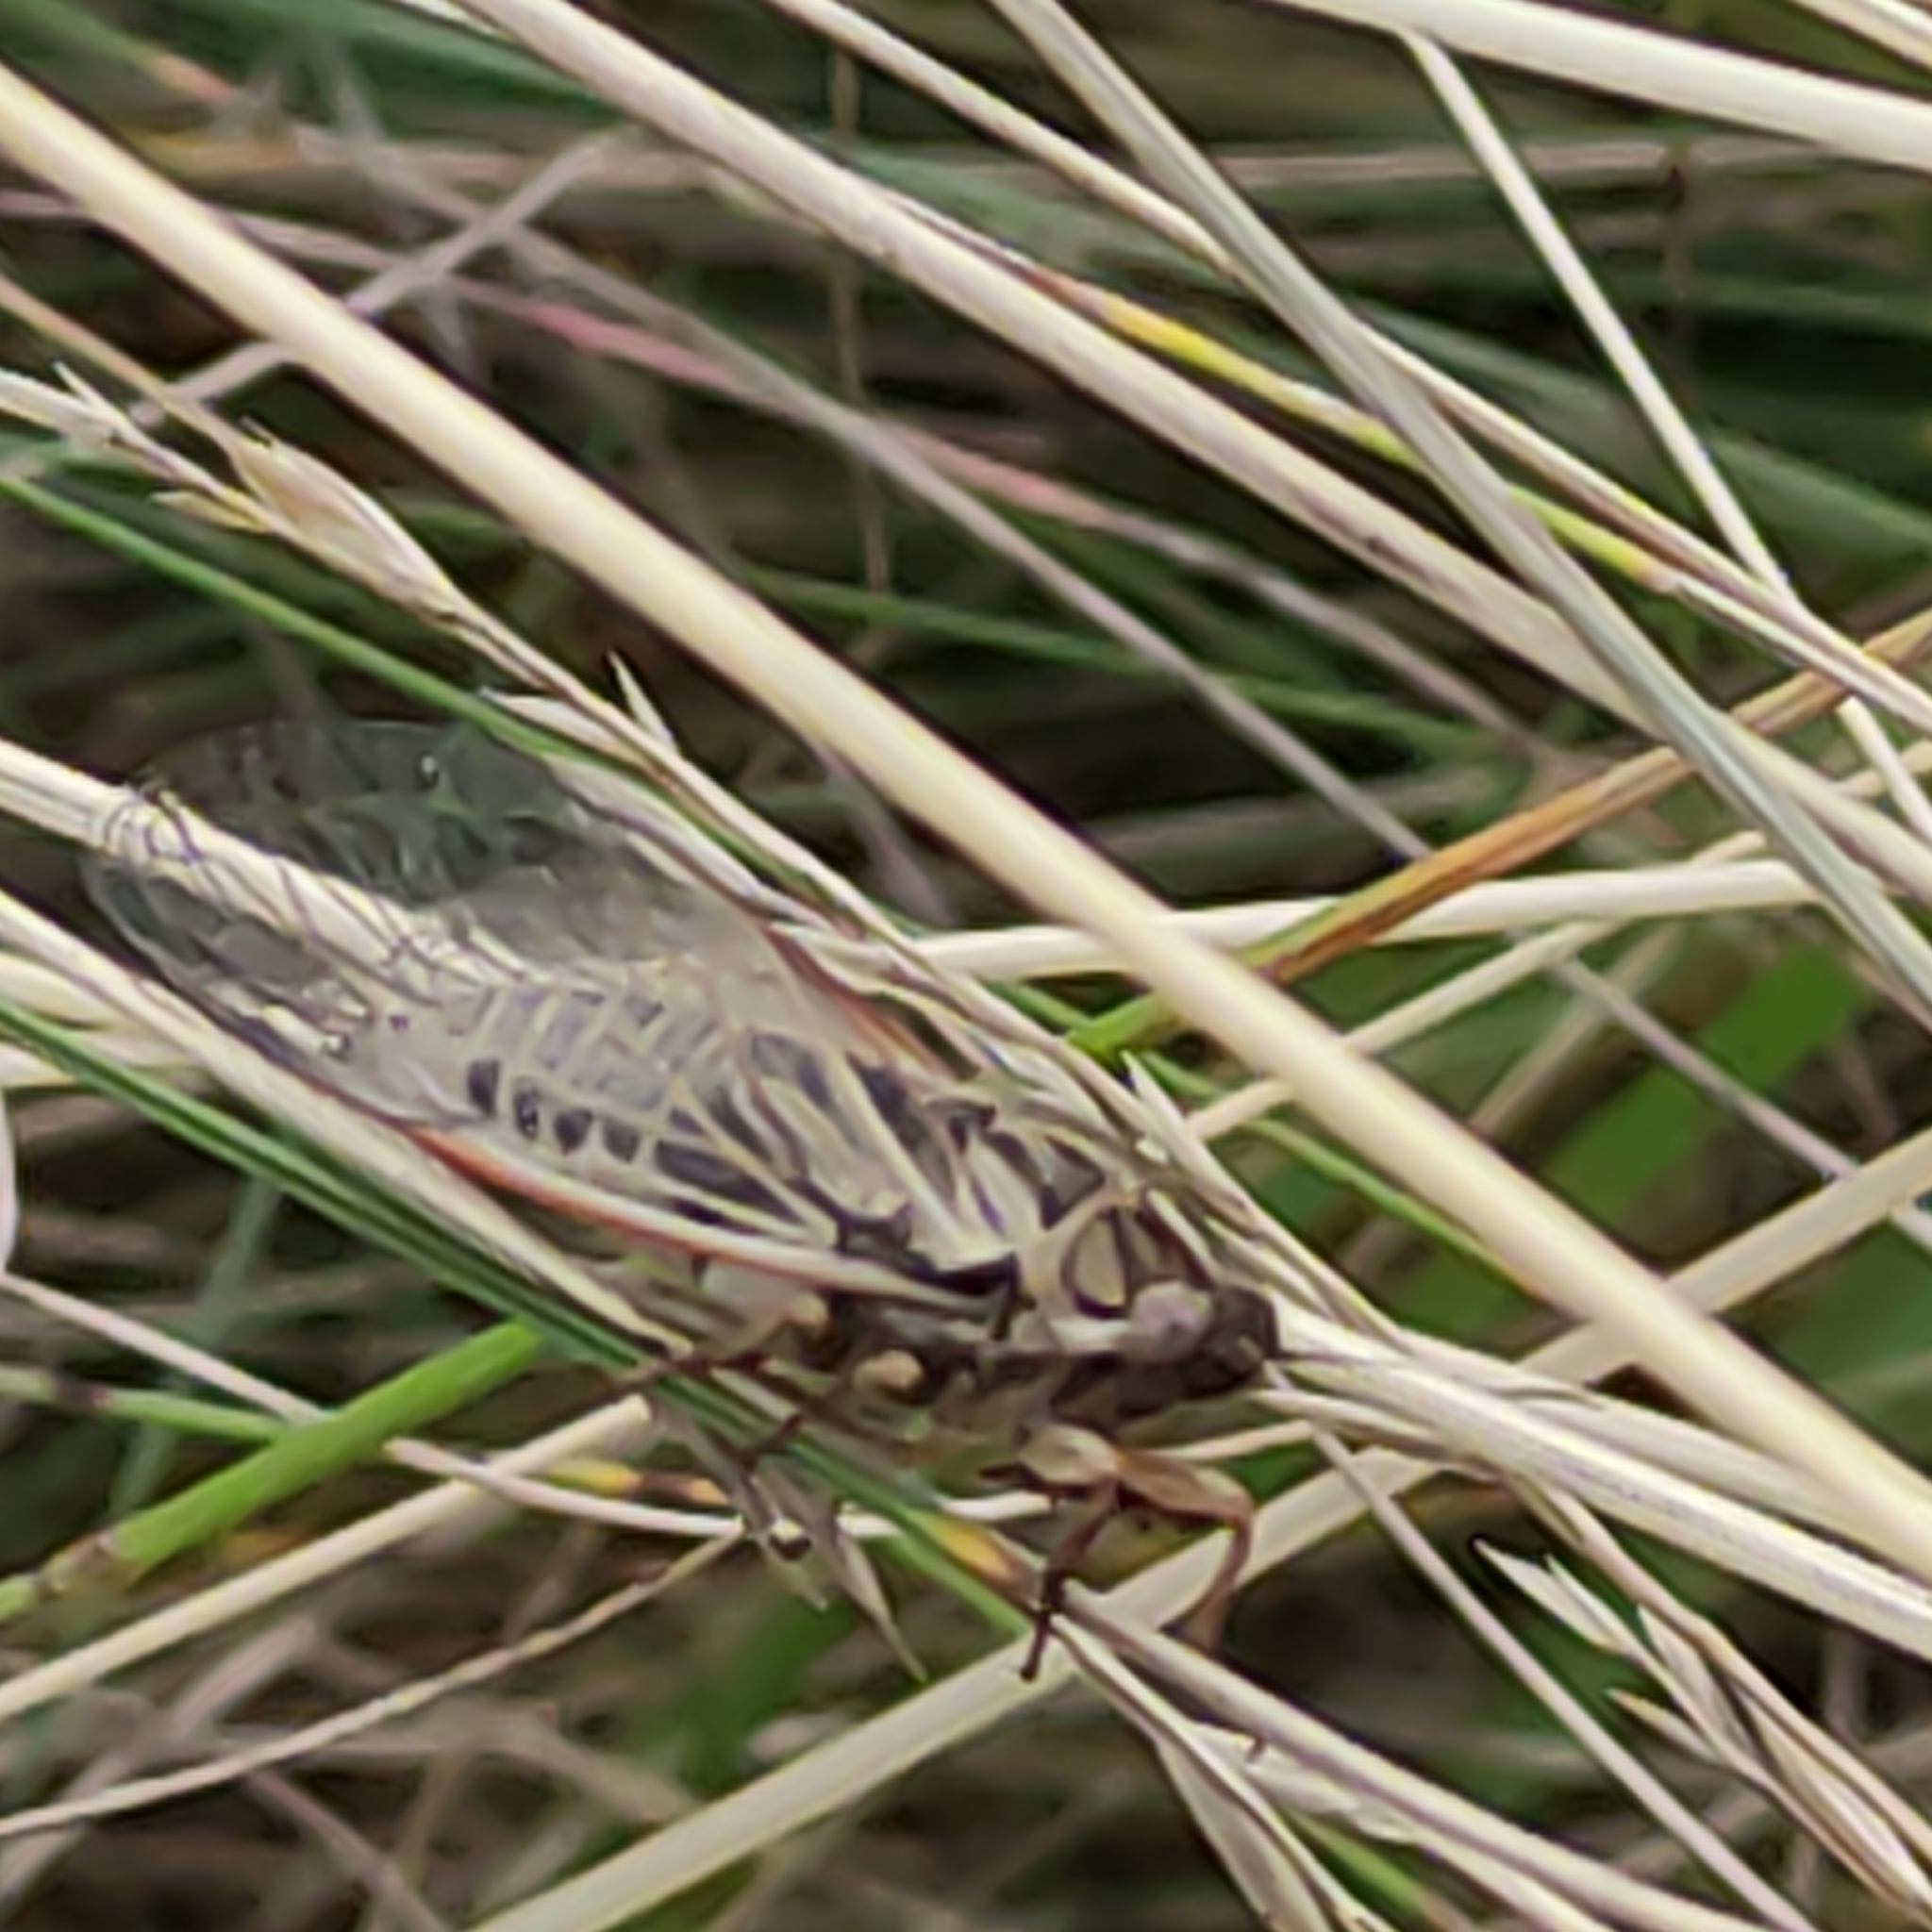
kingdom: Animalia
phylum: Arthropoda
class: Insecta
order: Hemiptera
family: Cicadidae
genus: Kikihia
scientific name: Kikihia angusta
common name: Tussock cicada
